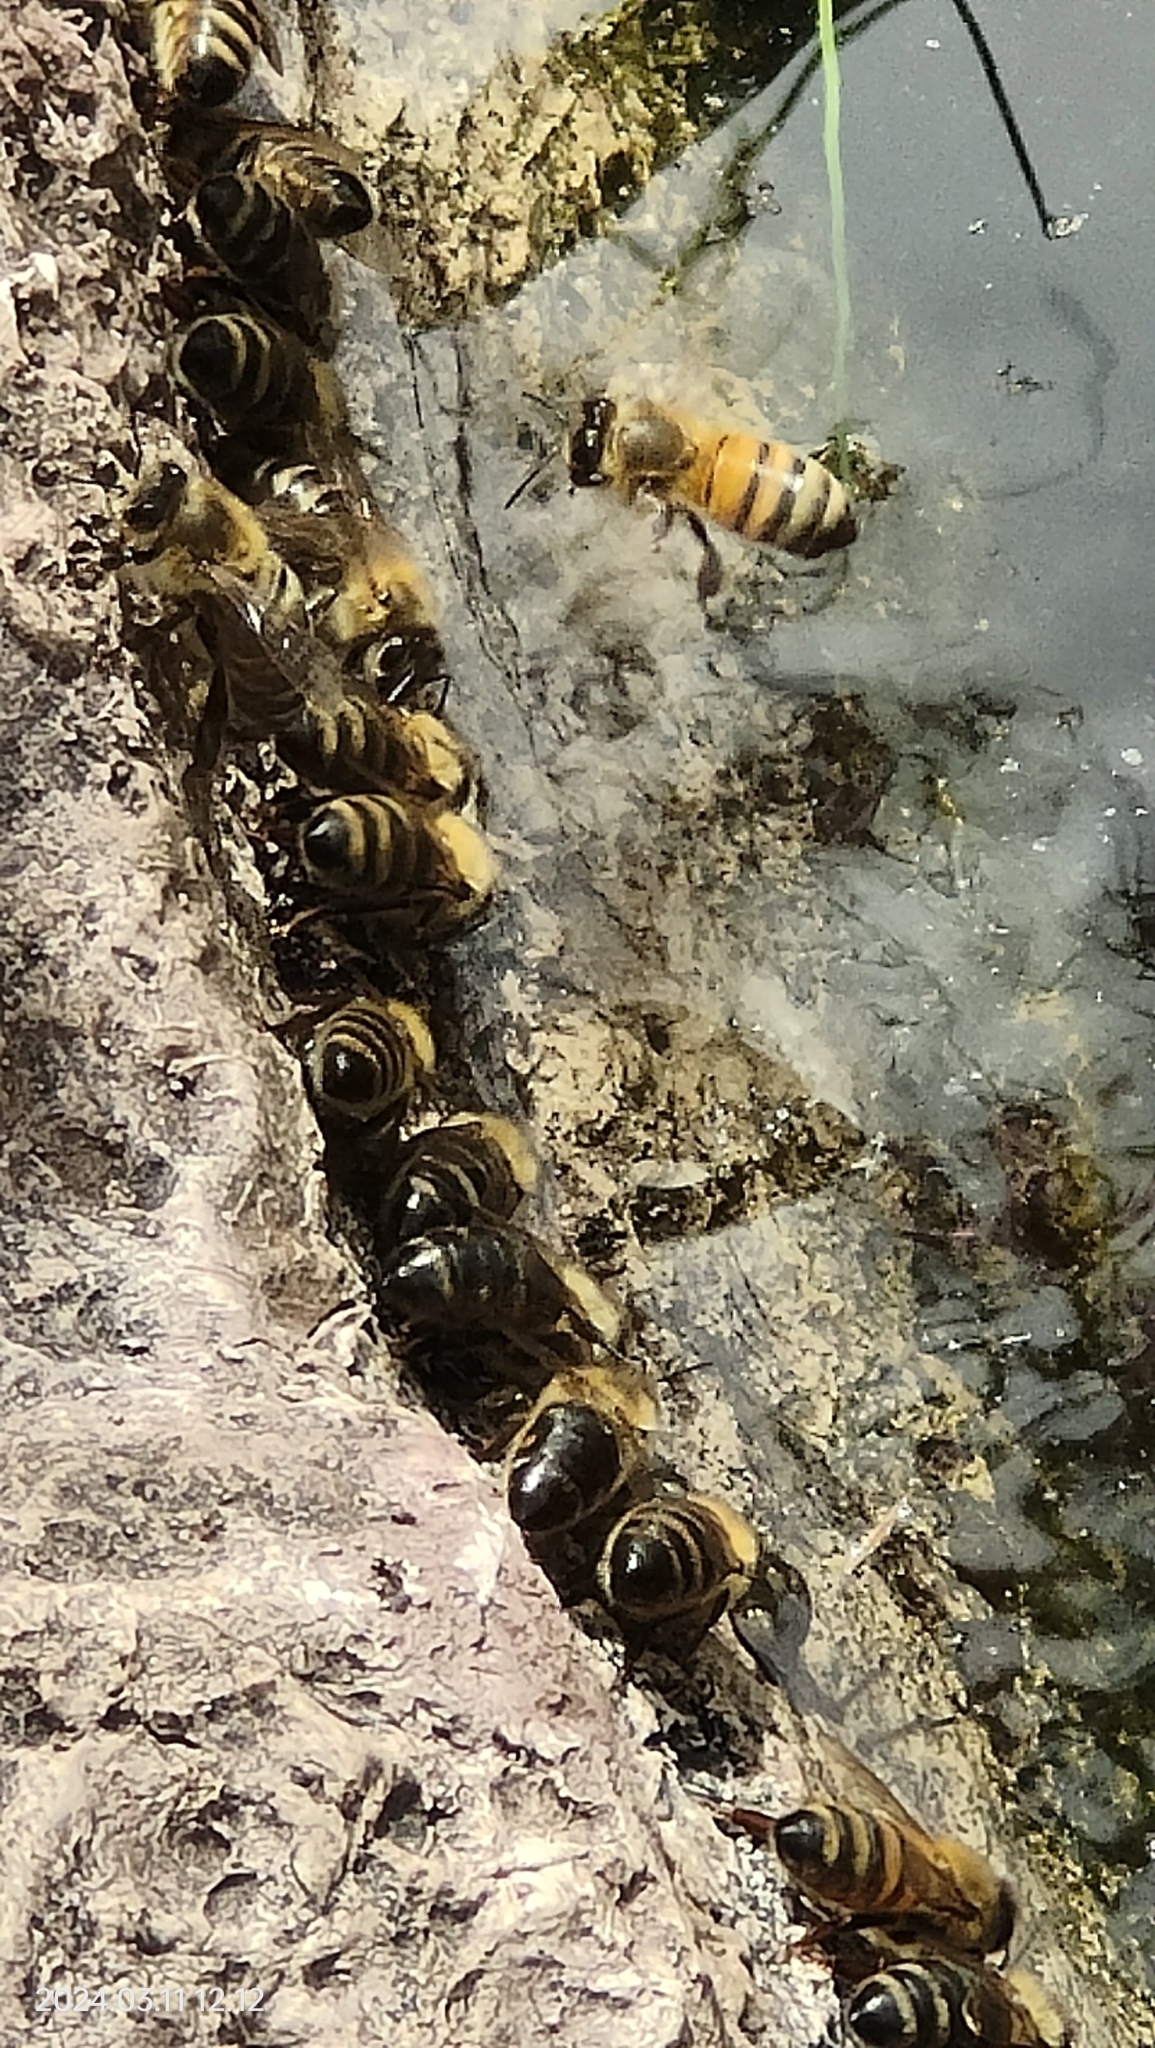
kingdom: Animalia
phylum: Arthropoda
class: Insecta
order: Hymenoptera
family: Apidae
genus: Apis
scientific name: Apis mellifera
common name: Honey bee
